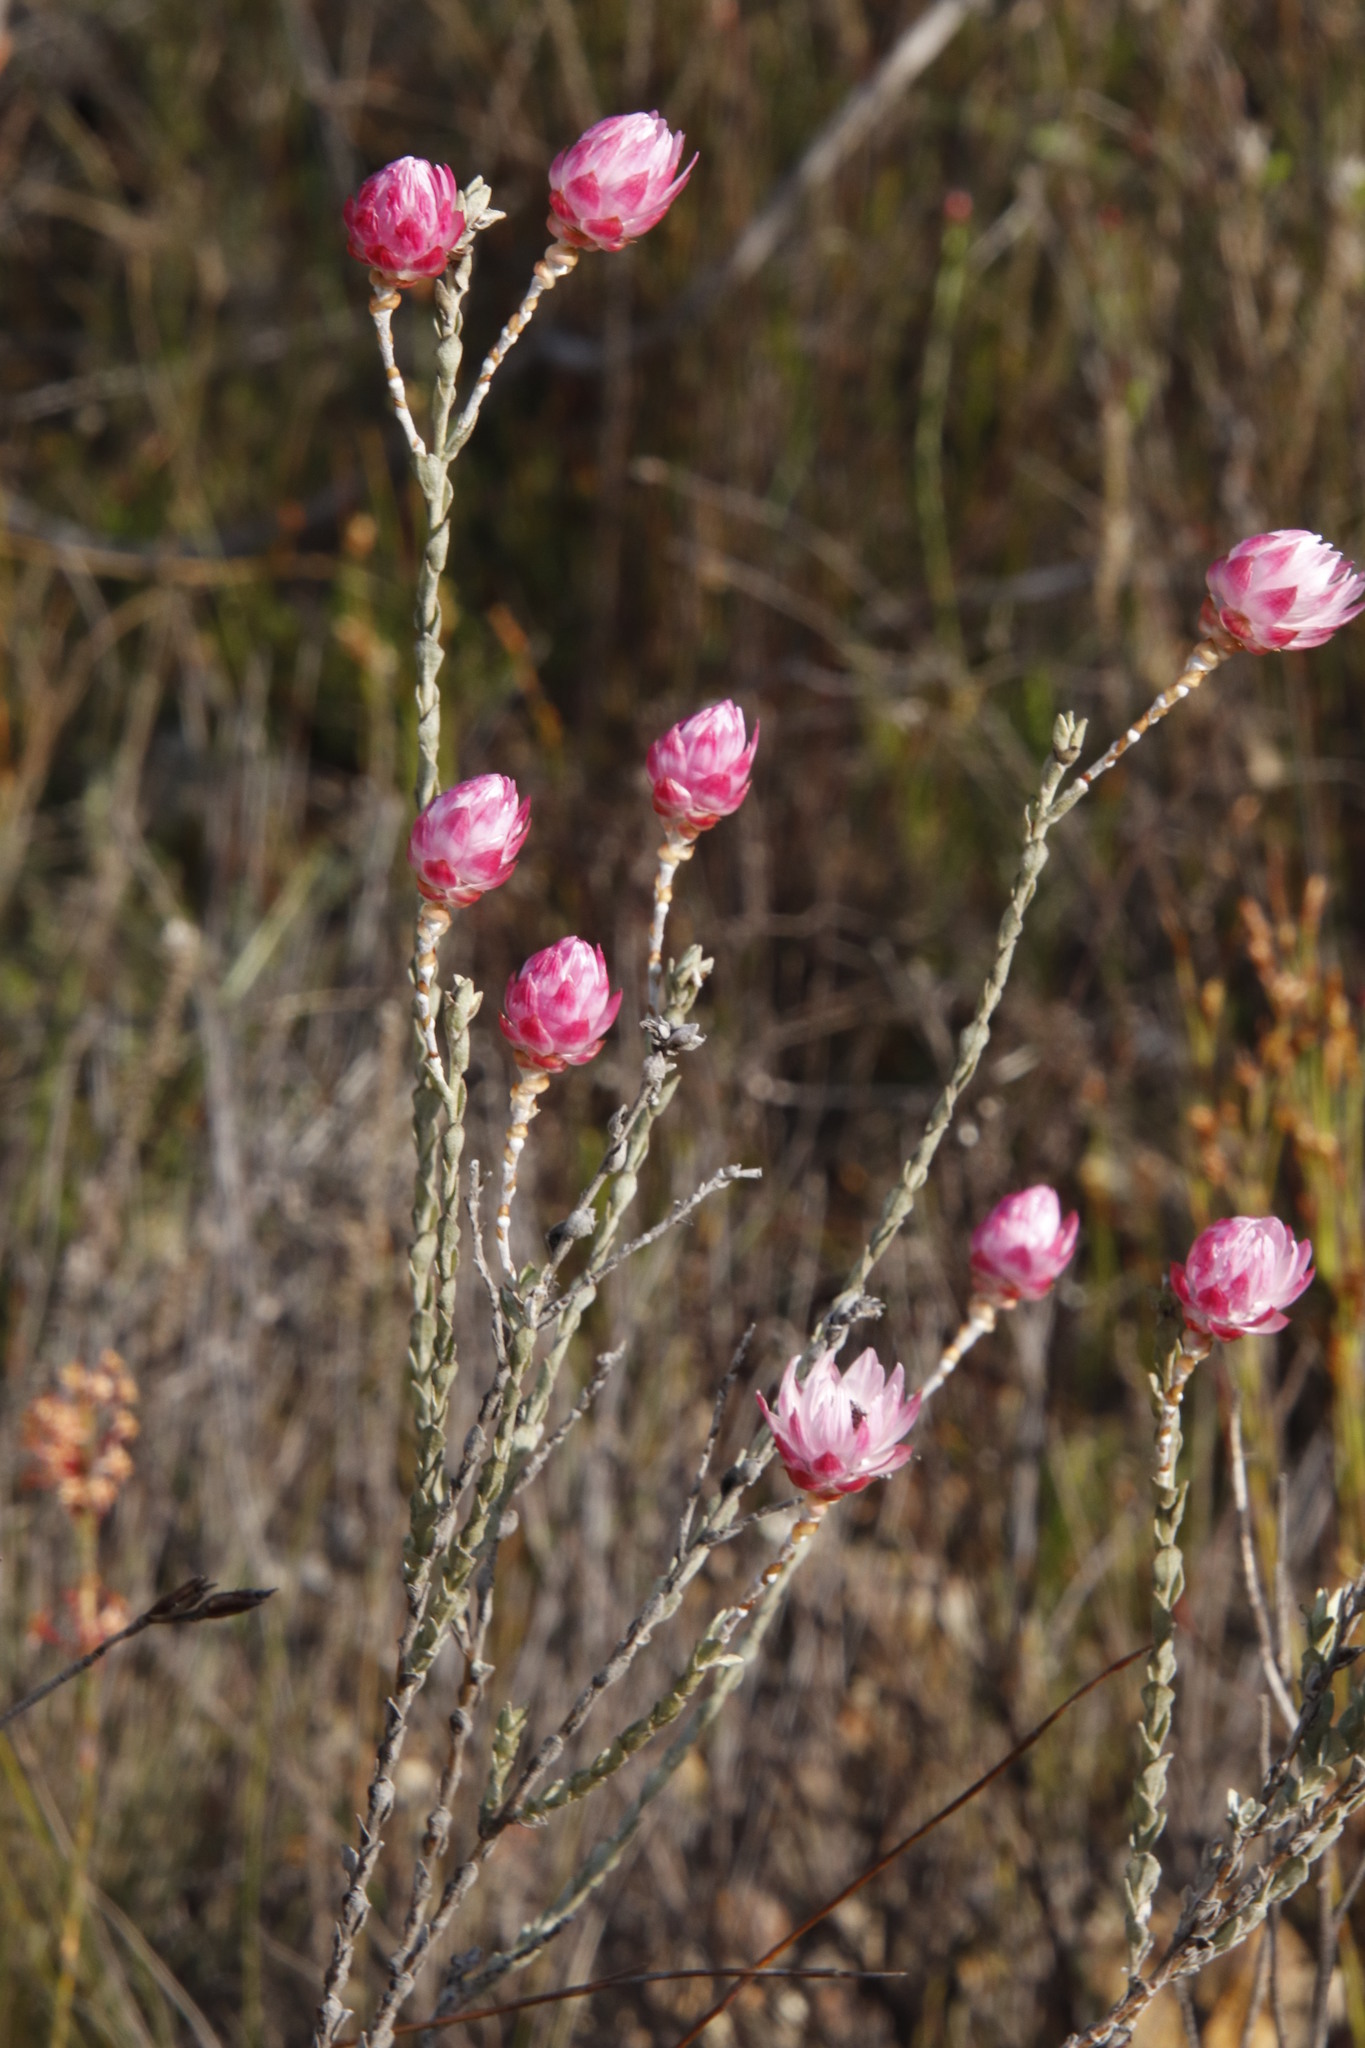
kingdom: Plantae
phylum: Tracheophyta
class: Magnoliopsida
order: Asterales
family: Asteraceae
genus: Syncarpha
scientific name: Syncarpha canescens
